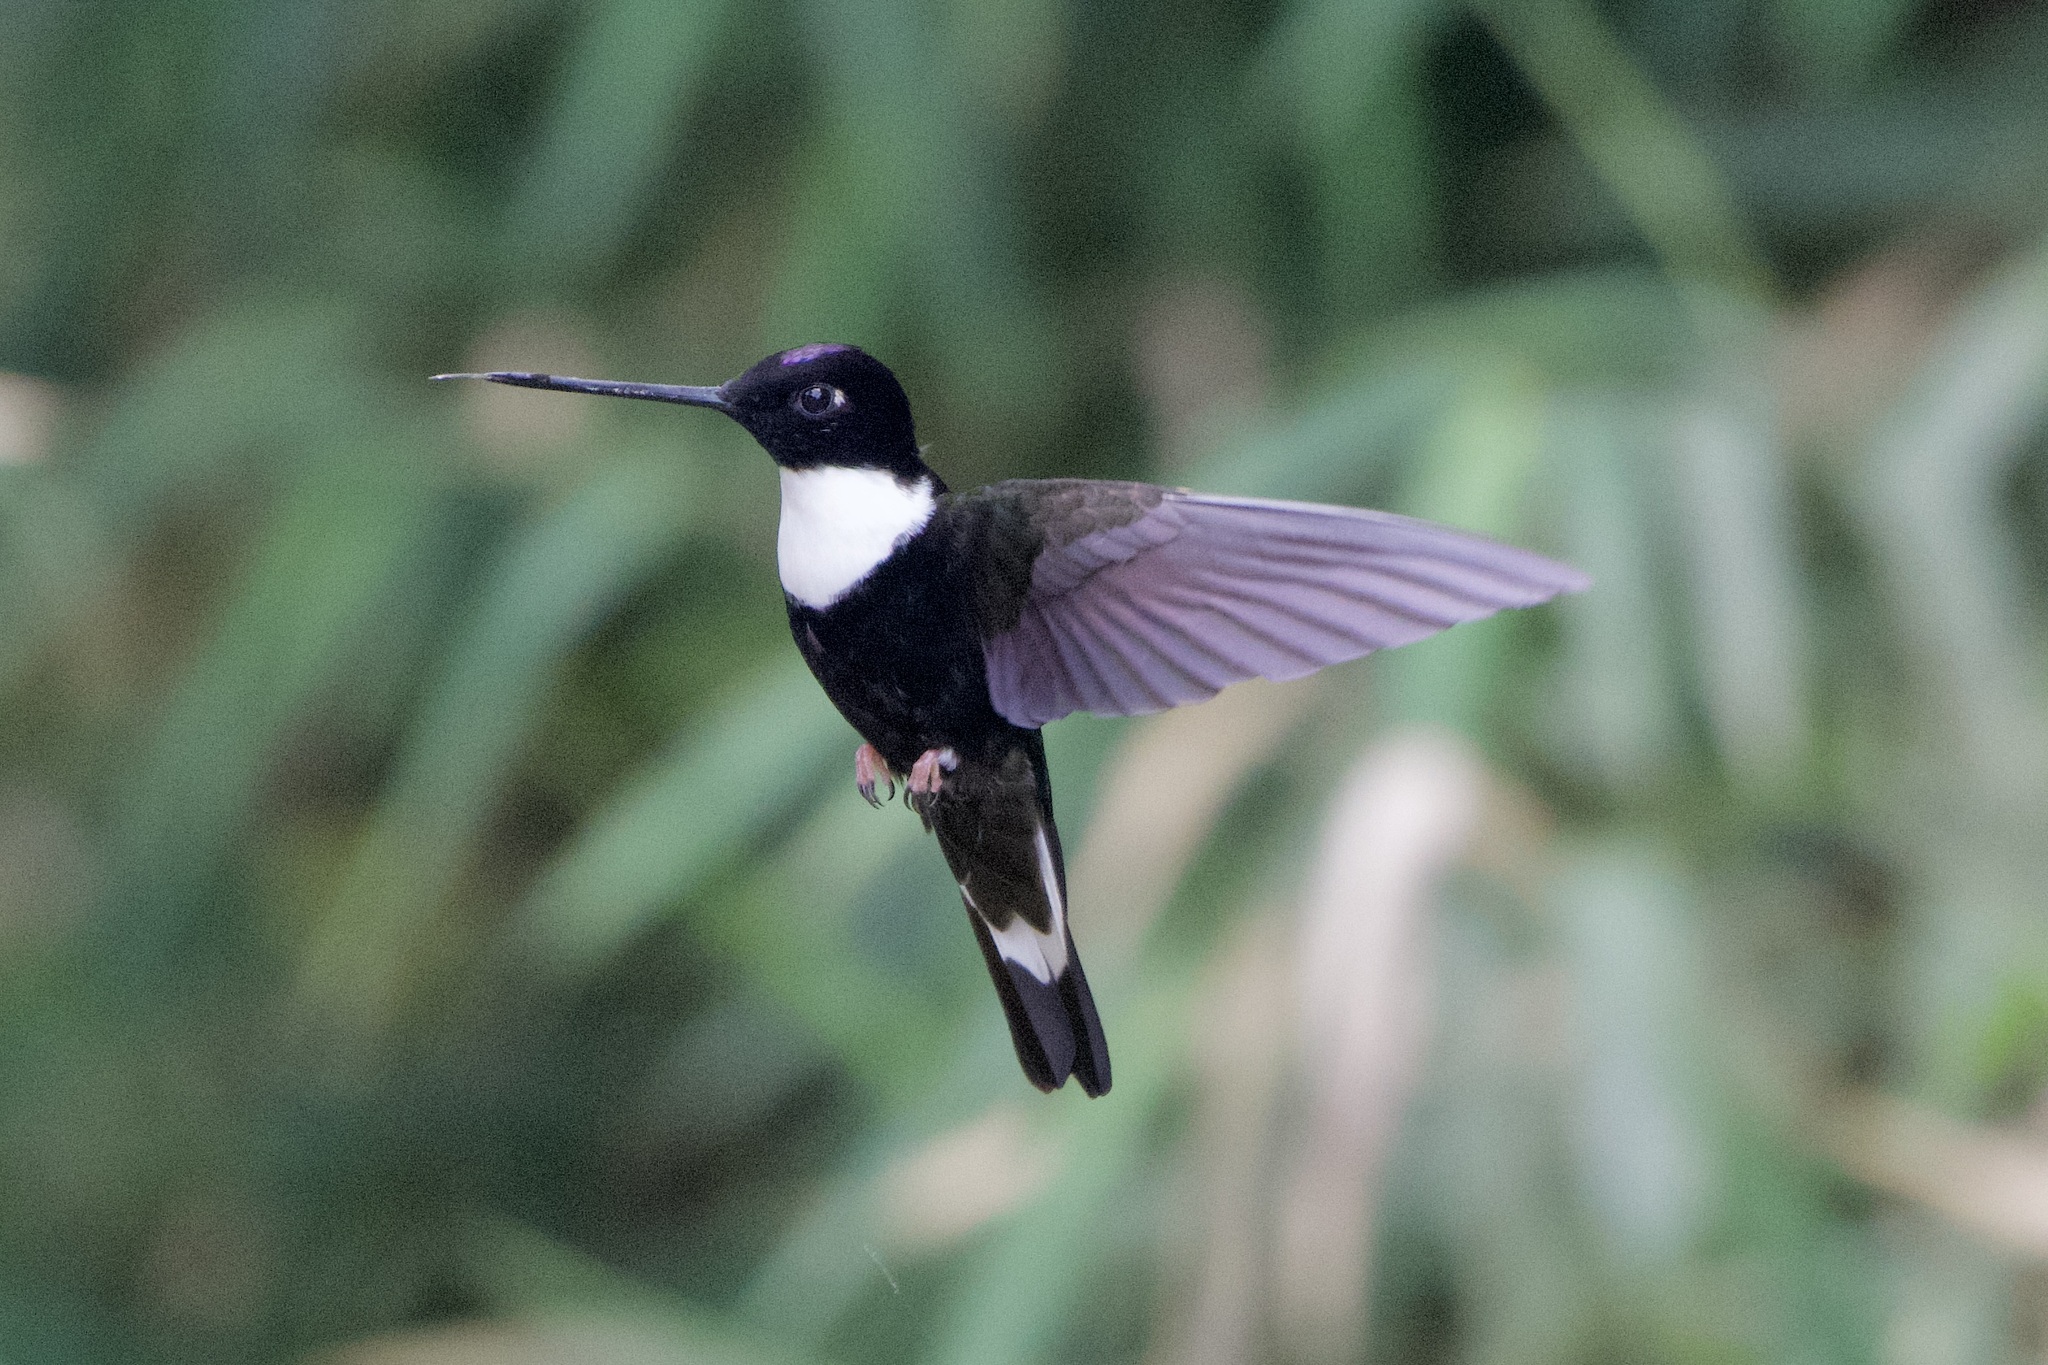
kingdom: Animalia
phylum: Chordata
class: Aves
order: Apodiformes
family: Trochilidae
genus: Coeligena
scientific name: Coeligena torquata
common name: Collared inca
